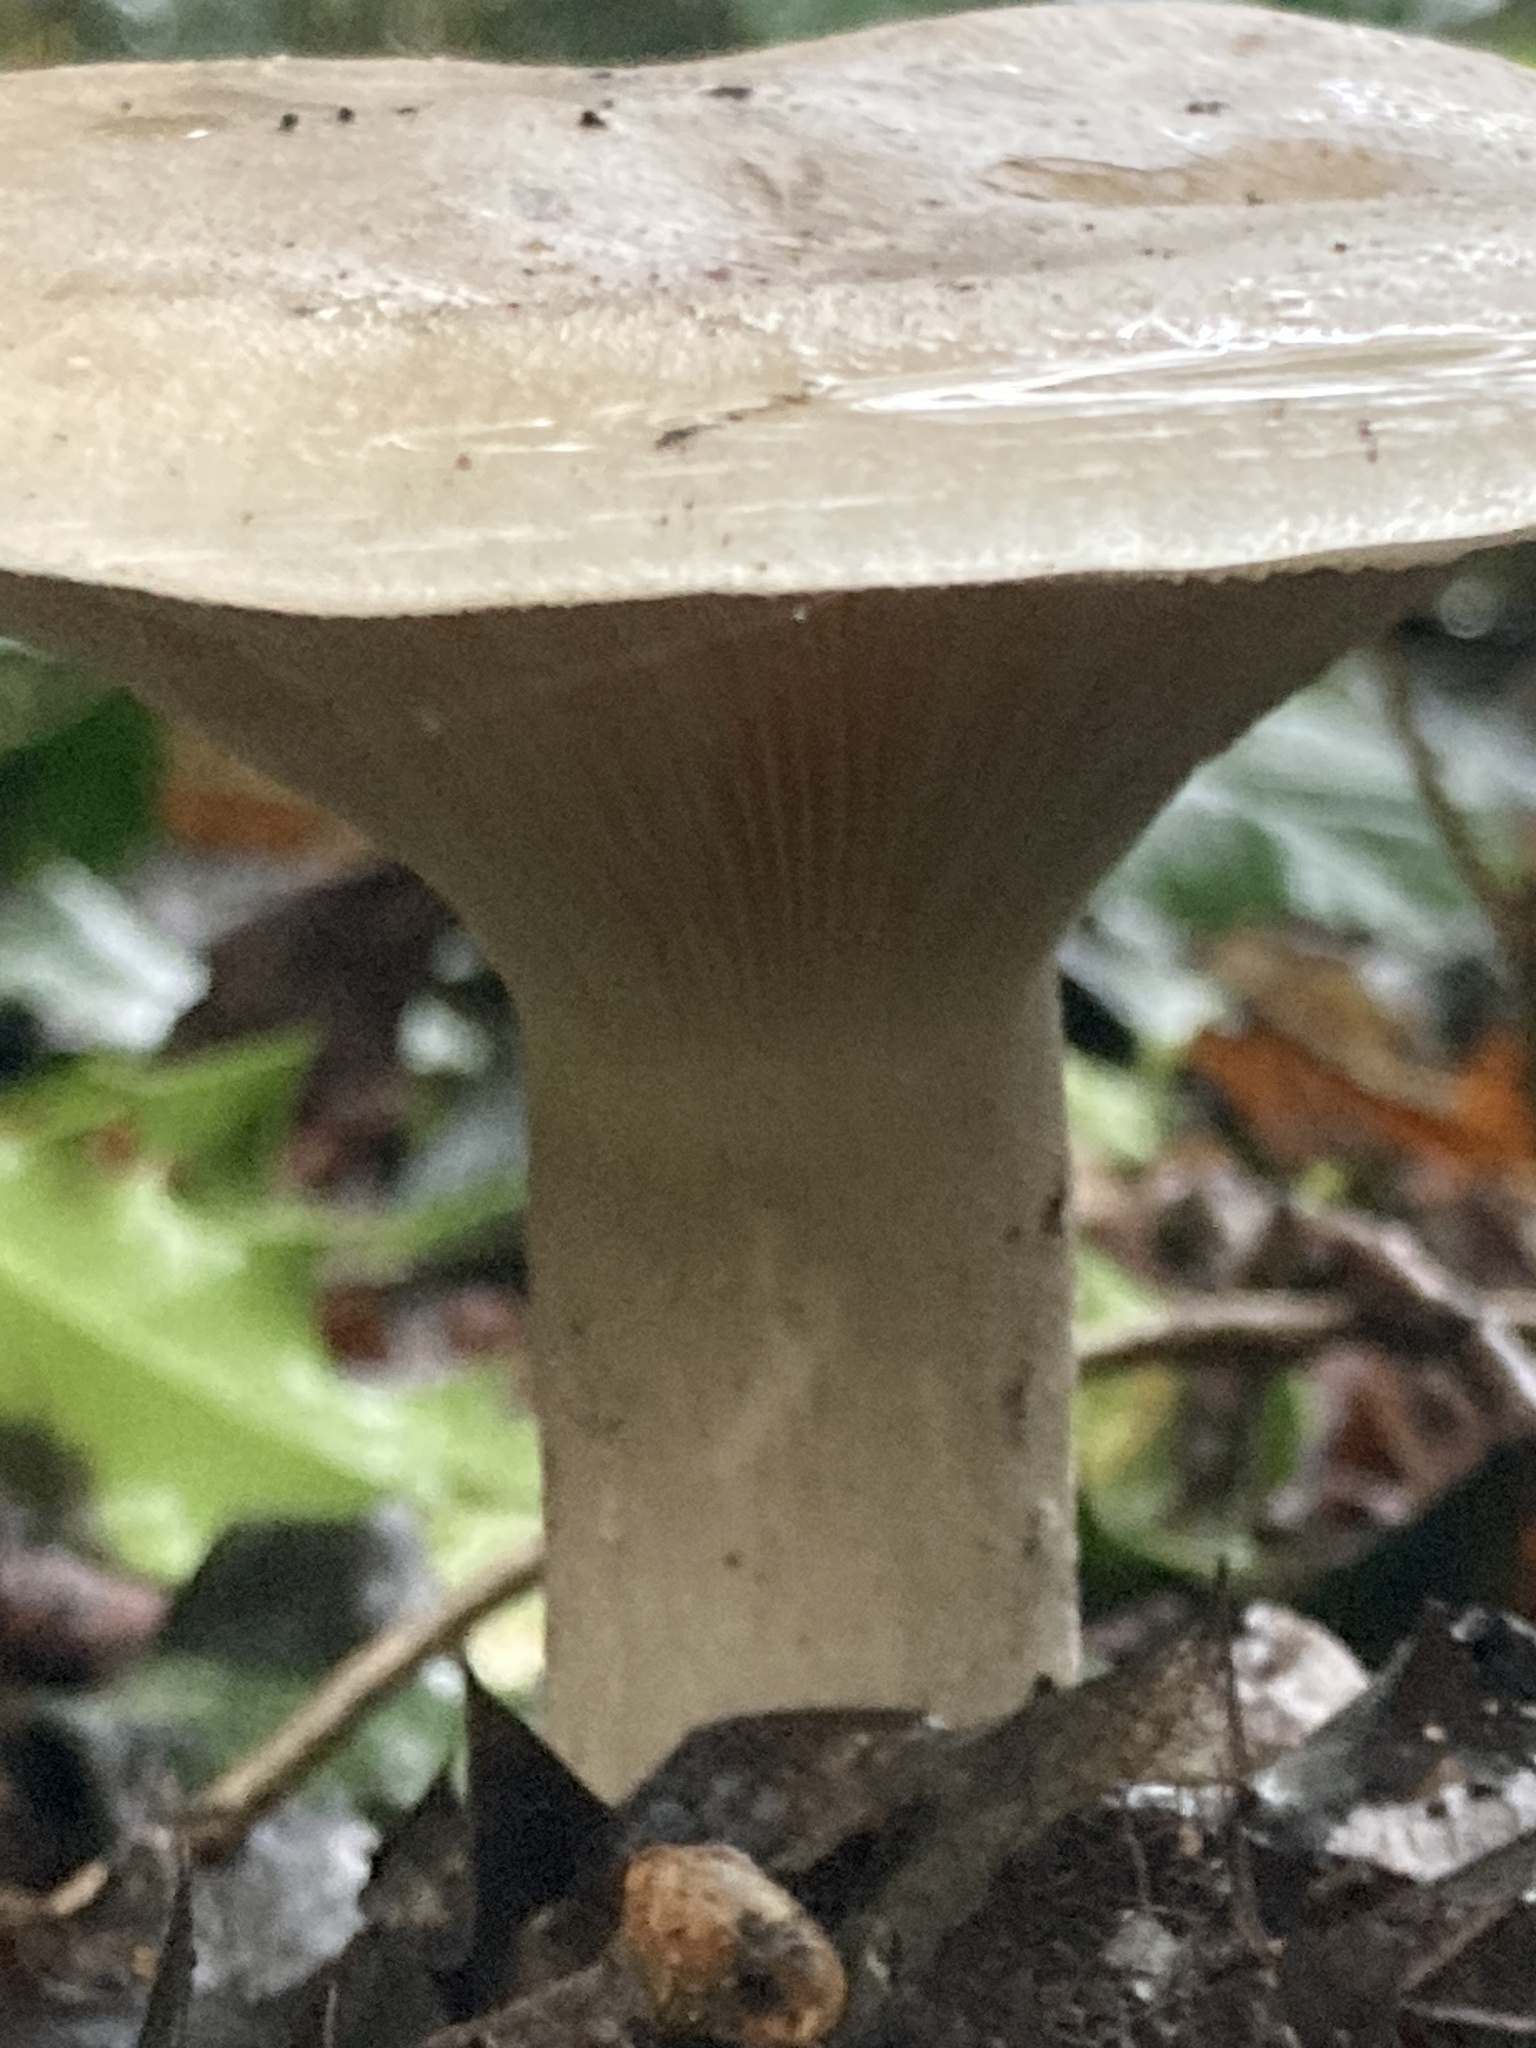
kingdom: Fungi
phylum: Basidiomycota
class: Agaricomycetes
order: Agaricales
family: Tricholomataceae
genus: Clitocybe
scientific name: Clitocybe nebularis
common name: Clouded agaric
